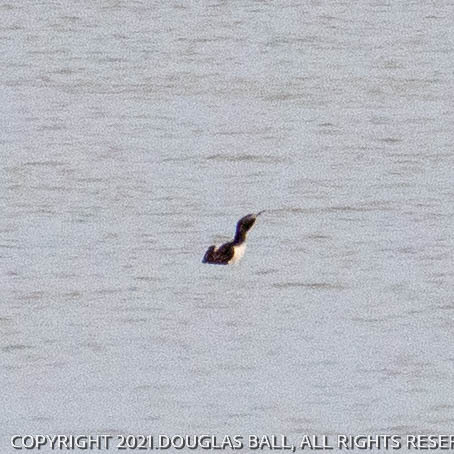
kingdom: Animalia
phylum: Chordata
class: Aves
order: Gaviiformes
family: Gaviidae
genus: Gavia
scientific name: Gavia stellata
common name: Red-throated loon
